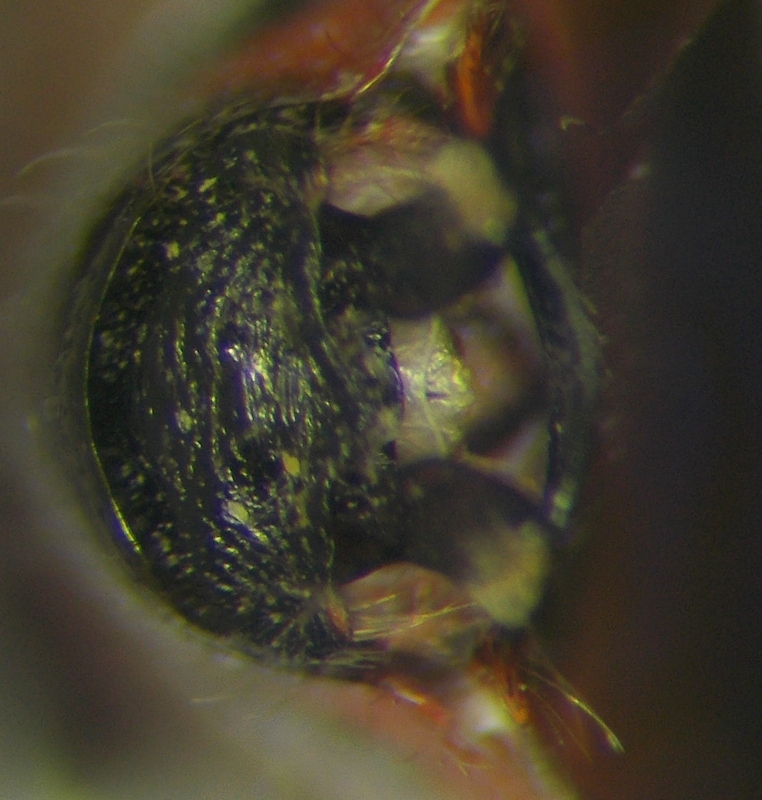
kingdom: Animalia
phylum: Arthropoda
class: Insecta
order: Hemiptera
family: Rhopalidae
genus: Corizus
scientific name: Corizus hyoscyami
